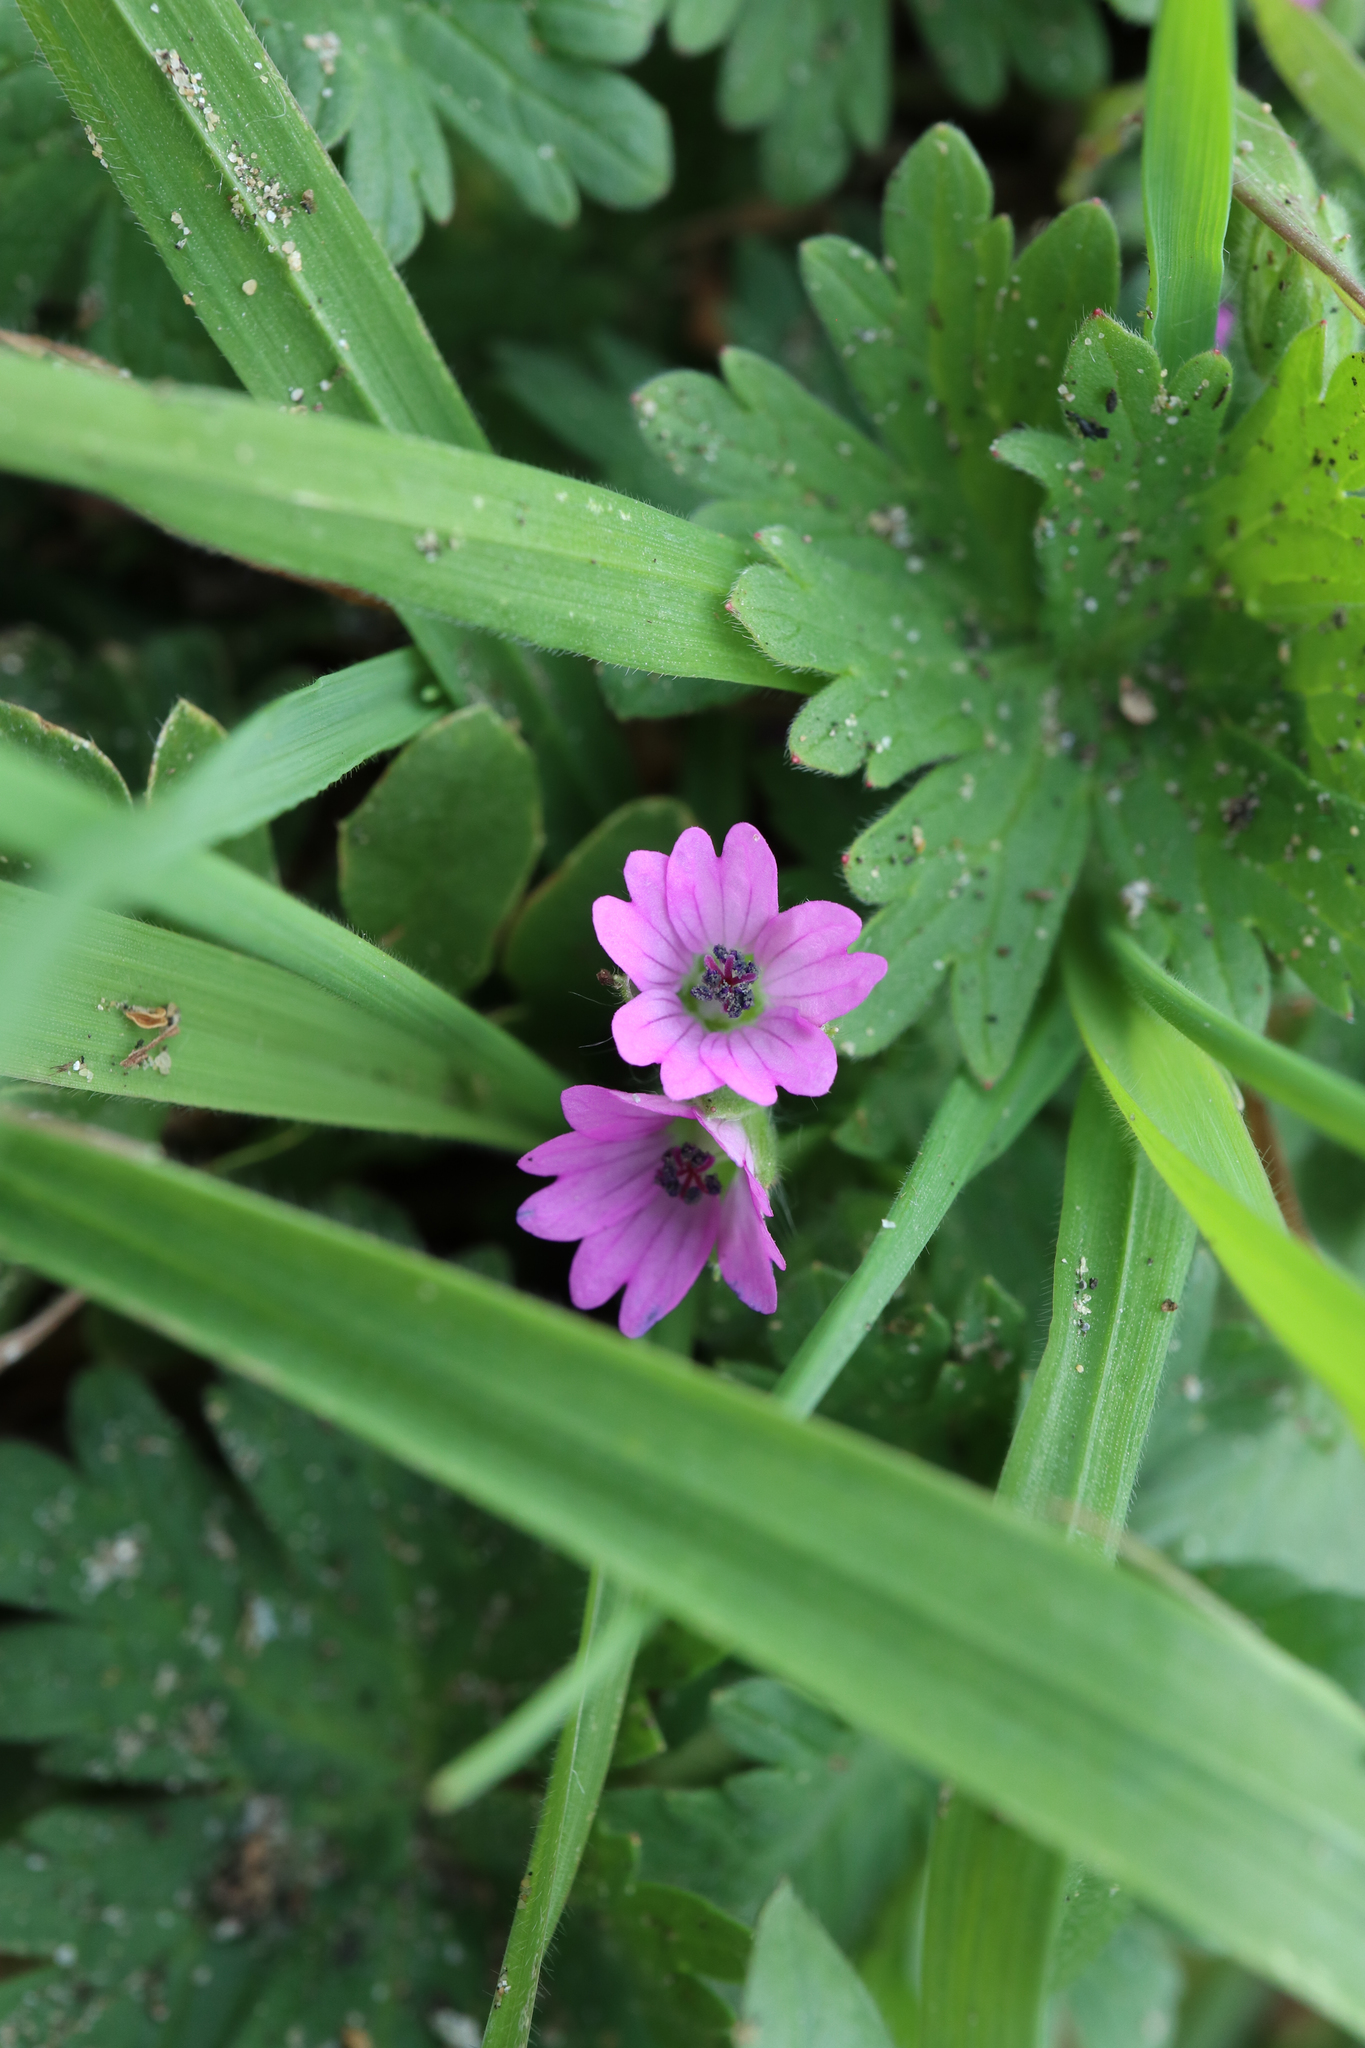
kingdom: Plantae
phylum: Tracheophyta
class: Magnoliopsida
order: Geraniales
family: Geraniaceae
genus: Geranium
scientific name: Geranium molle
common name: Dove's-foot crane's-bill
